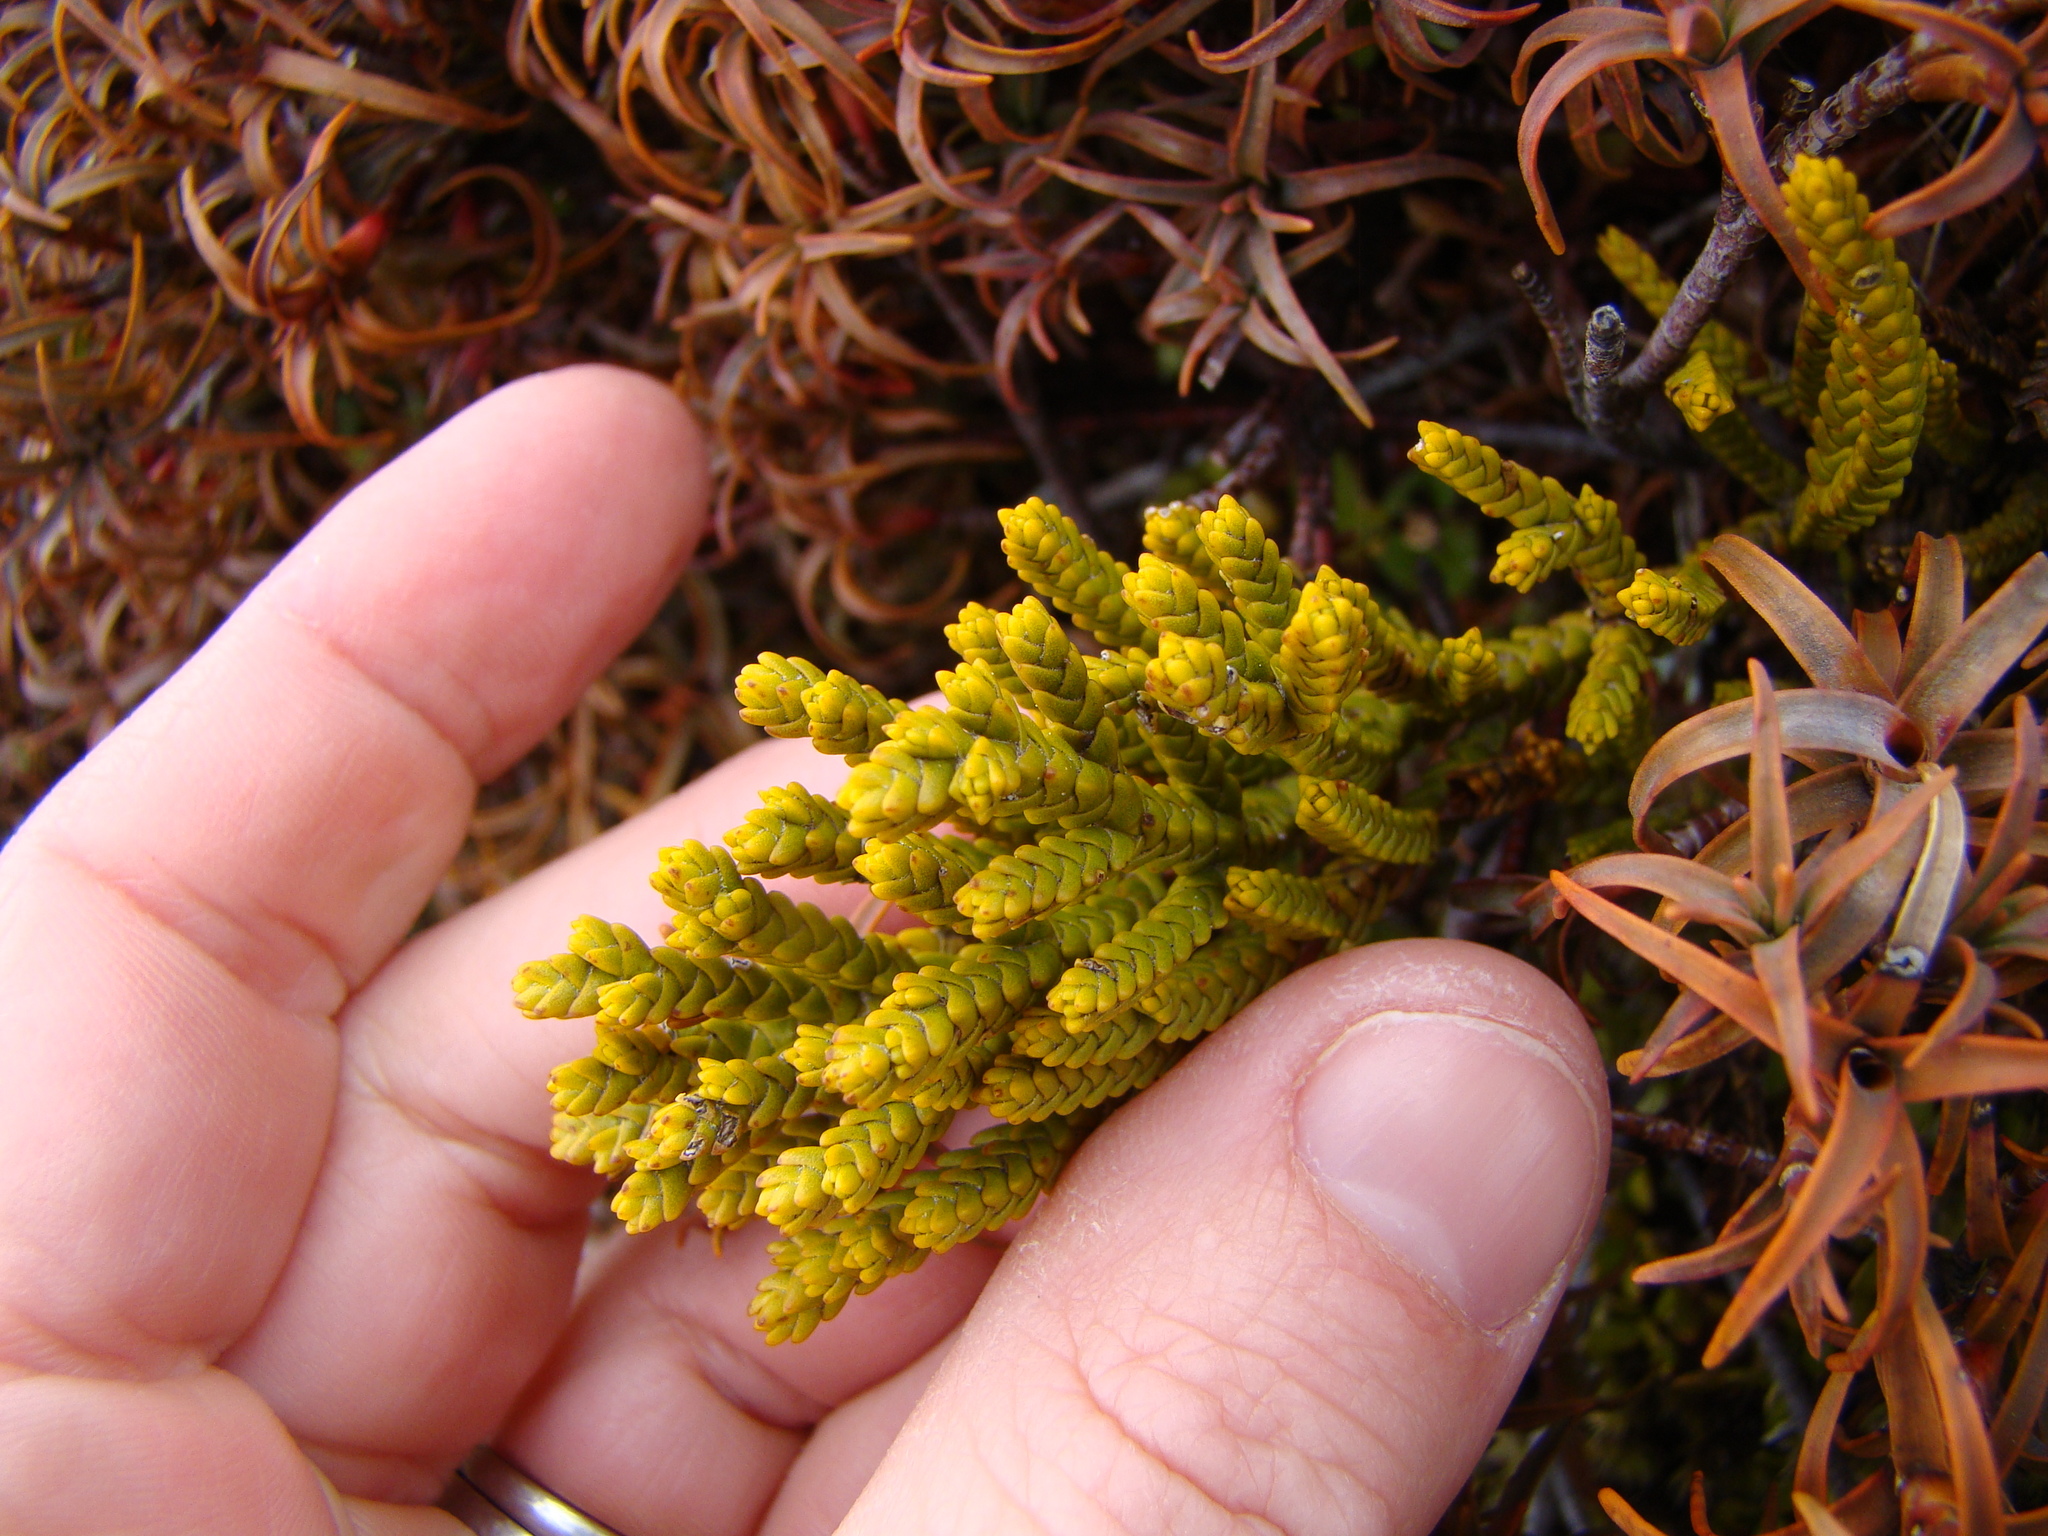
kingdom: Plantae
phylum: Tracheophyta
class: Magnoliopsida
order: Lamiales
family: Plantaginaceae
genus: Veronica
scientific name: Veronica tetragona
